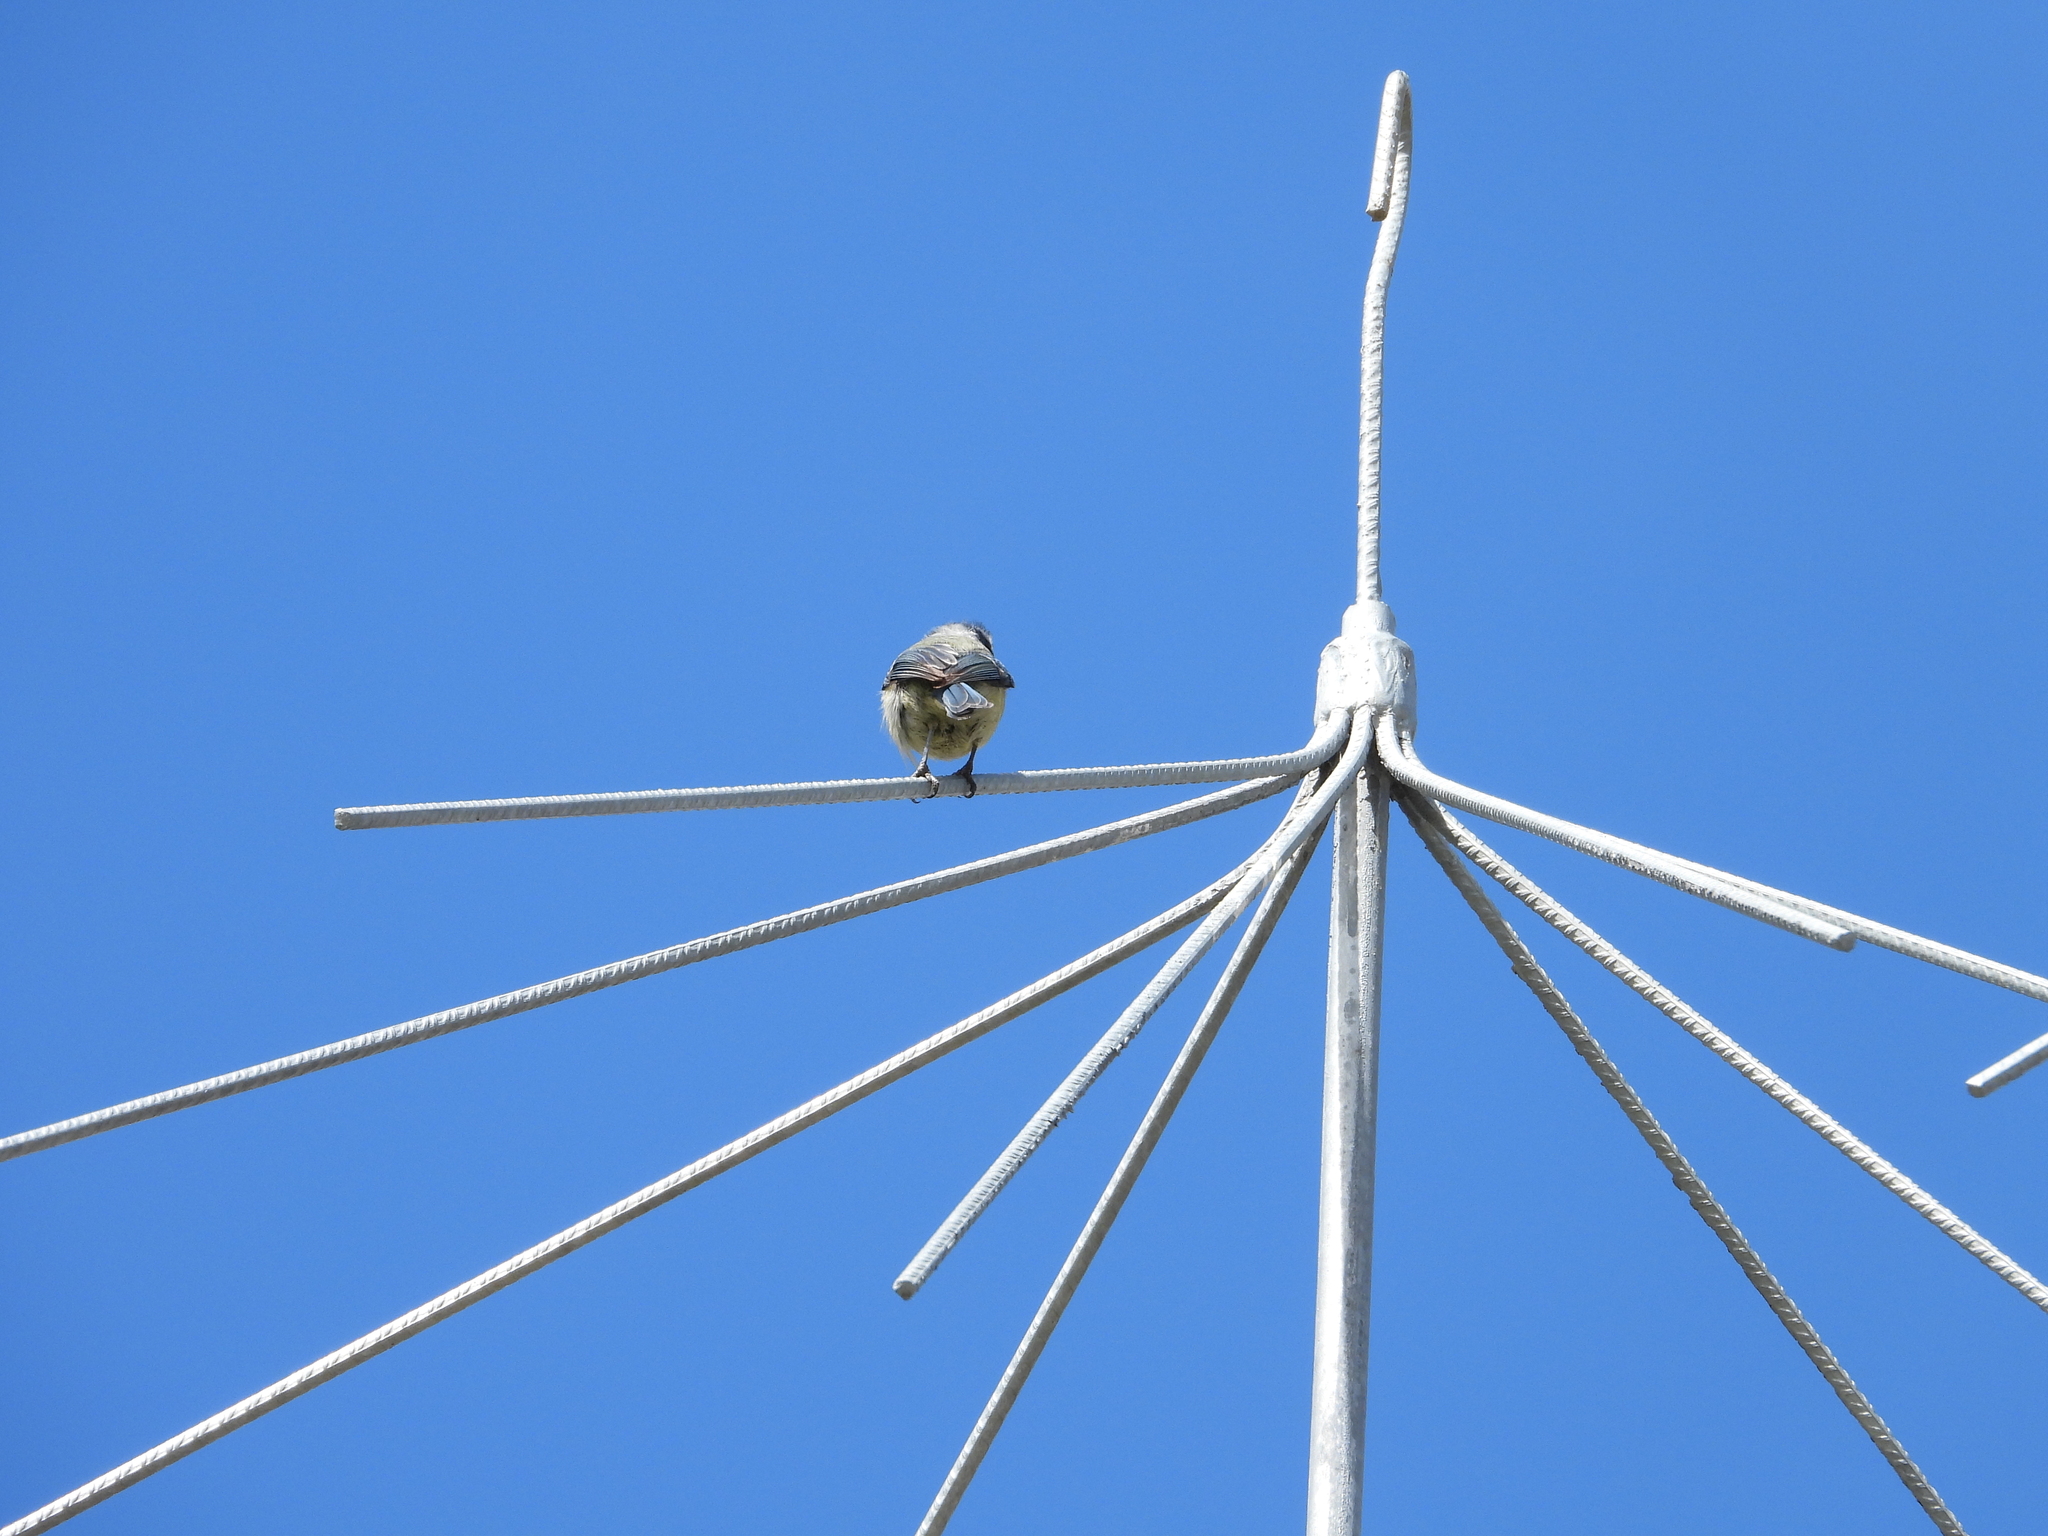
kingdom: Animalia
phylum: Chordata
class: Aves
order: Passeriformes
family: Paridae
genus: Cyanistes
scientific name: Cyanistes caeruleus
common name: Eurasian blue tit
